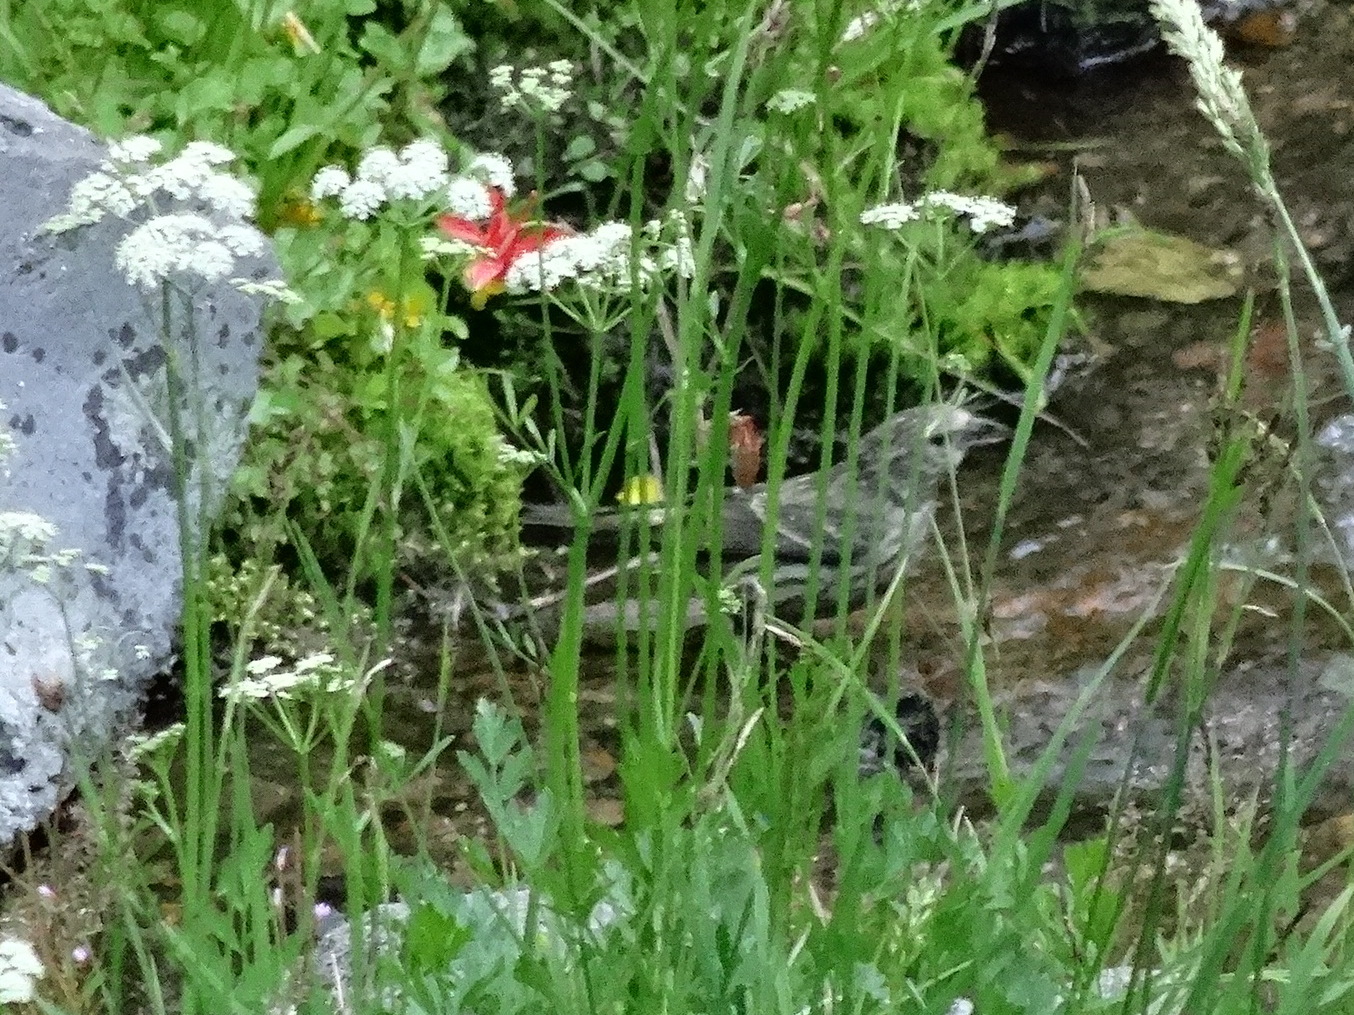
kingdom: Animalia
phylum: Chordata
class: Aves
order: Passeriformes
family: Fringillidae
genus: Loxia
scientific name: Loxia curvirostra
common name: Red crossbill
